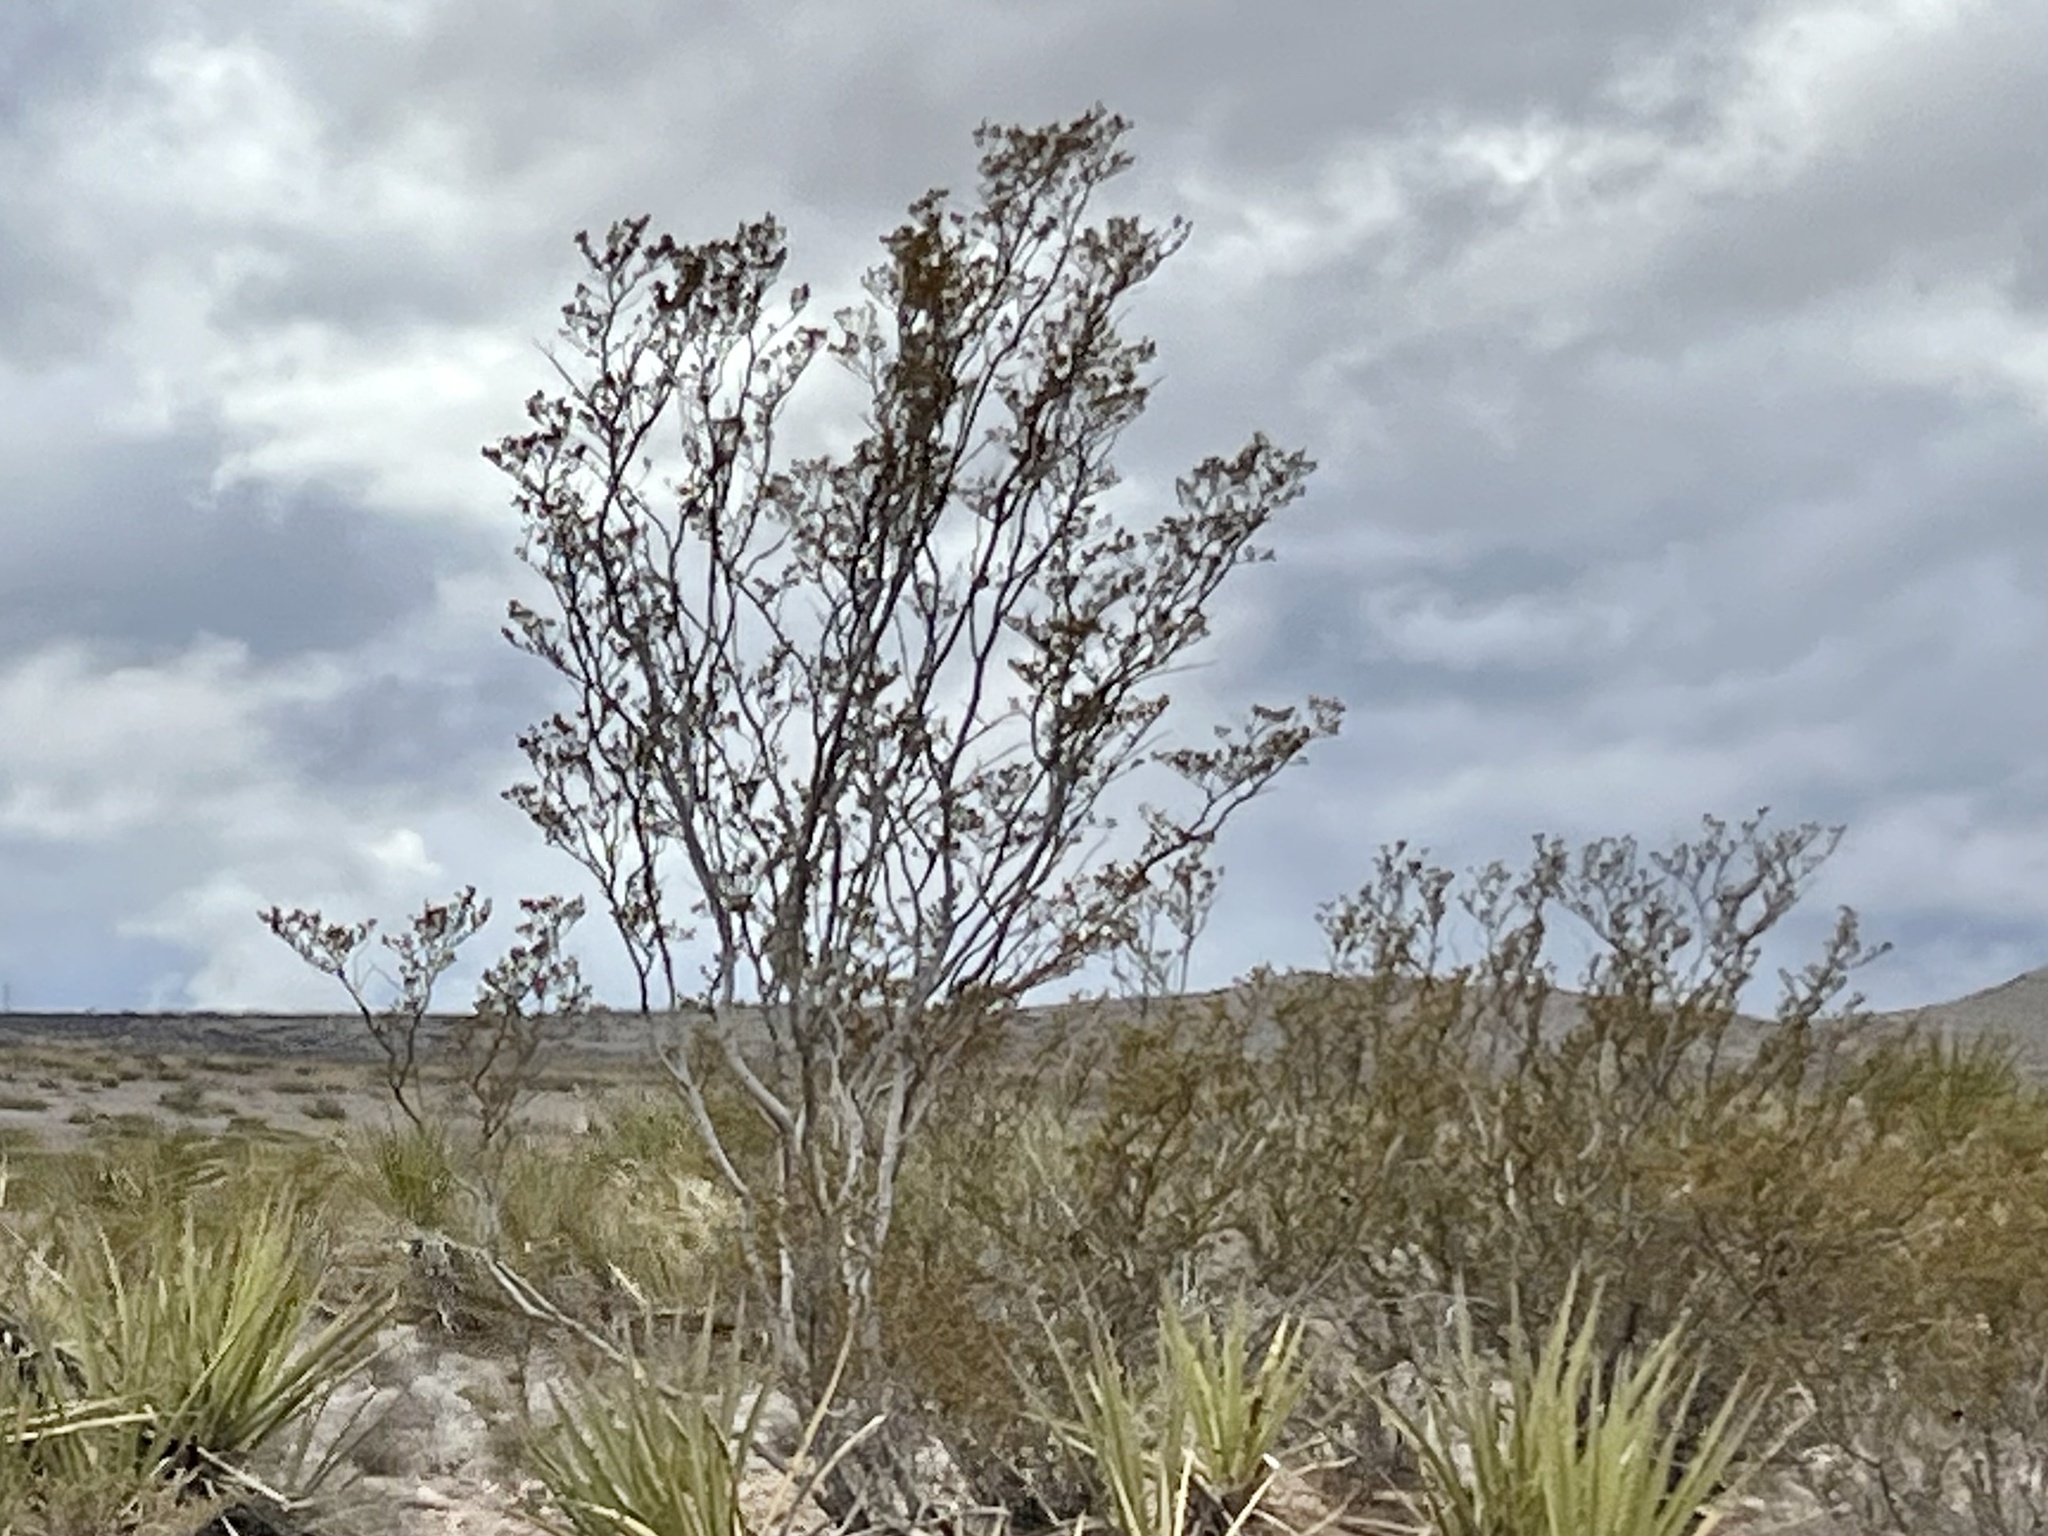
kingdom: Plantae
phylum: Tracheophyta
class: Magnoliopsida
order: Zygophyllales
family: Zygophyllaceae
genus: Larrea
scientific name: Larrea tridentata
